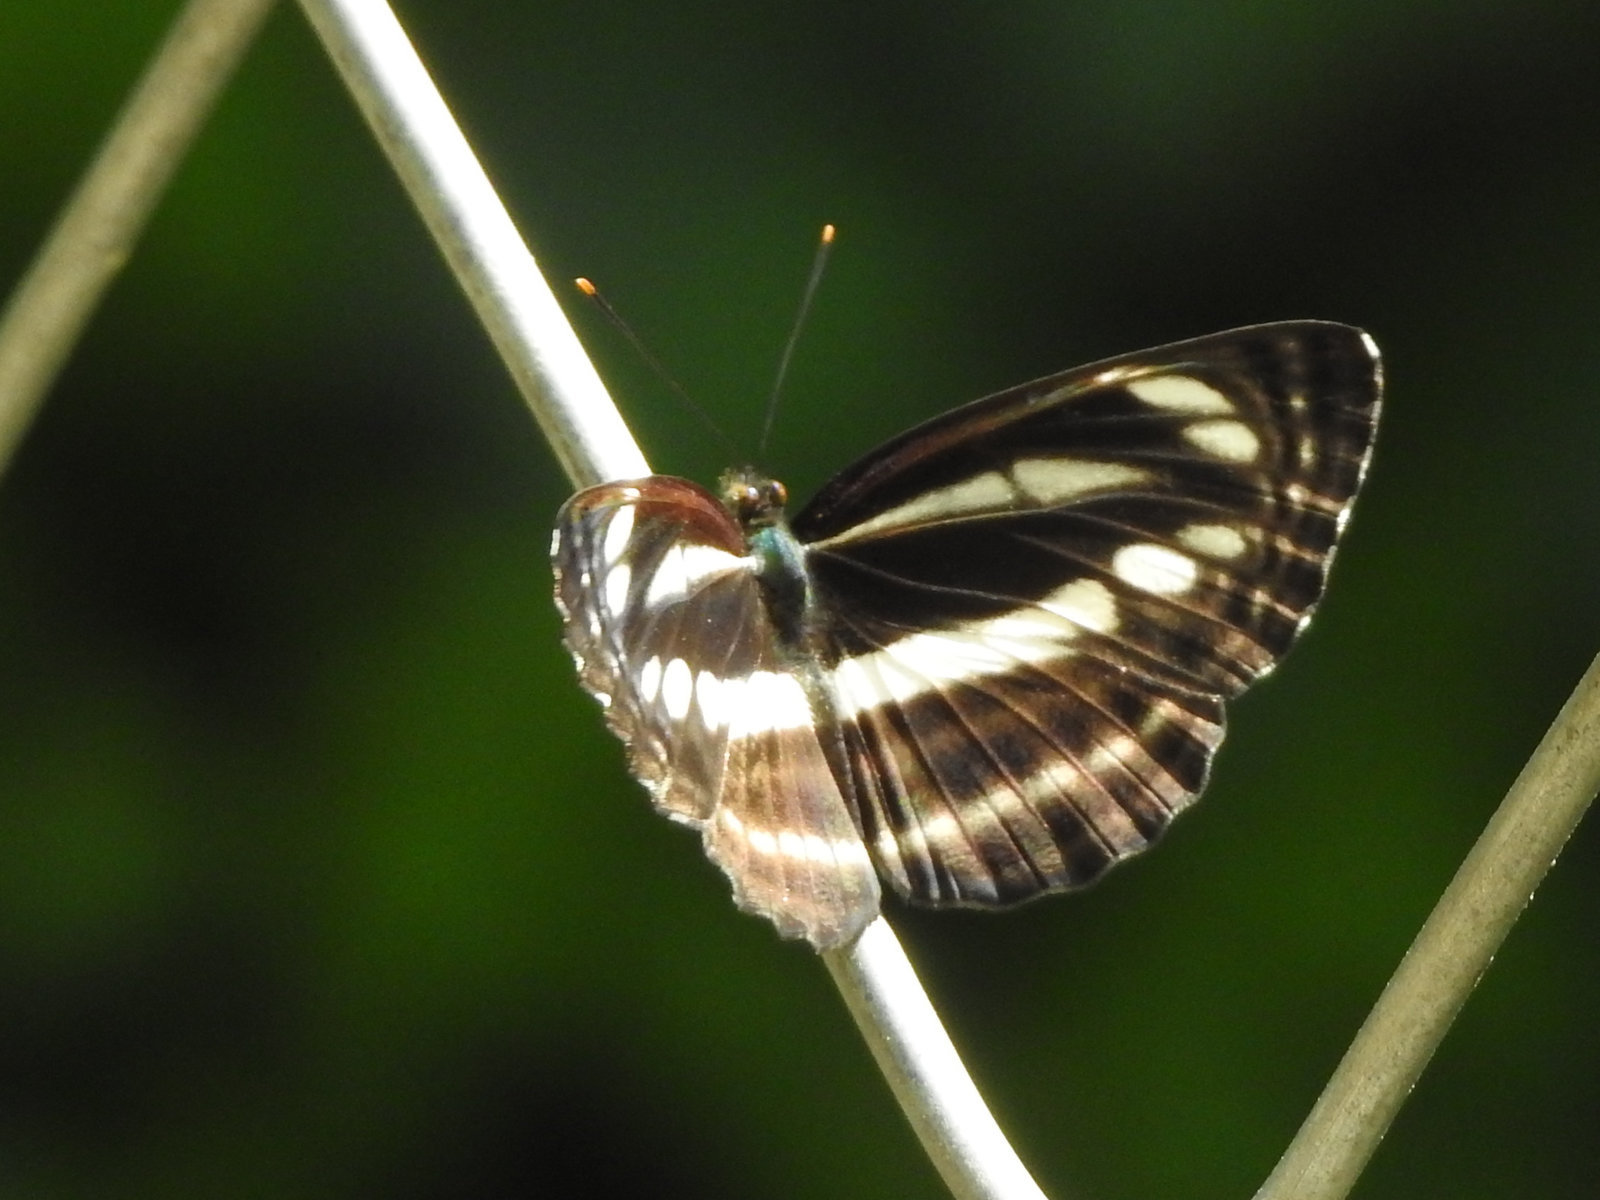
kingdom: Animalia
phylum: Arthropoda
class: Insecta
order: Lepidoptera
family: Nymphalidae
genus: Neptis
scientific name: Neptis clinia
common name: Southern sullied sailer
